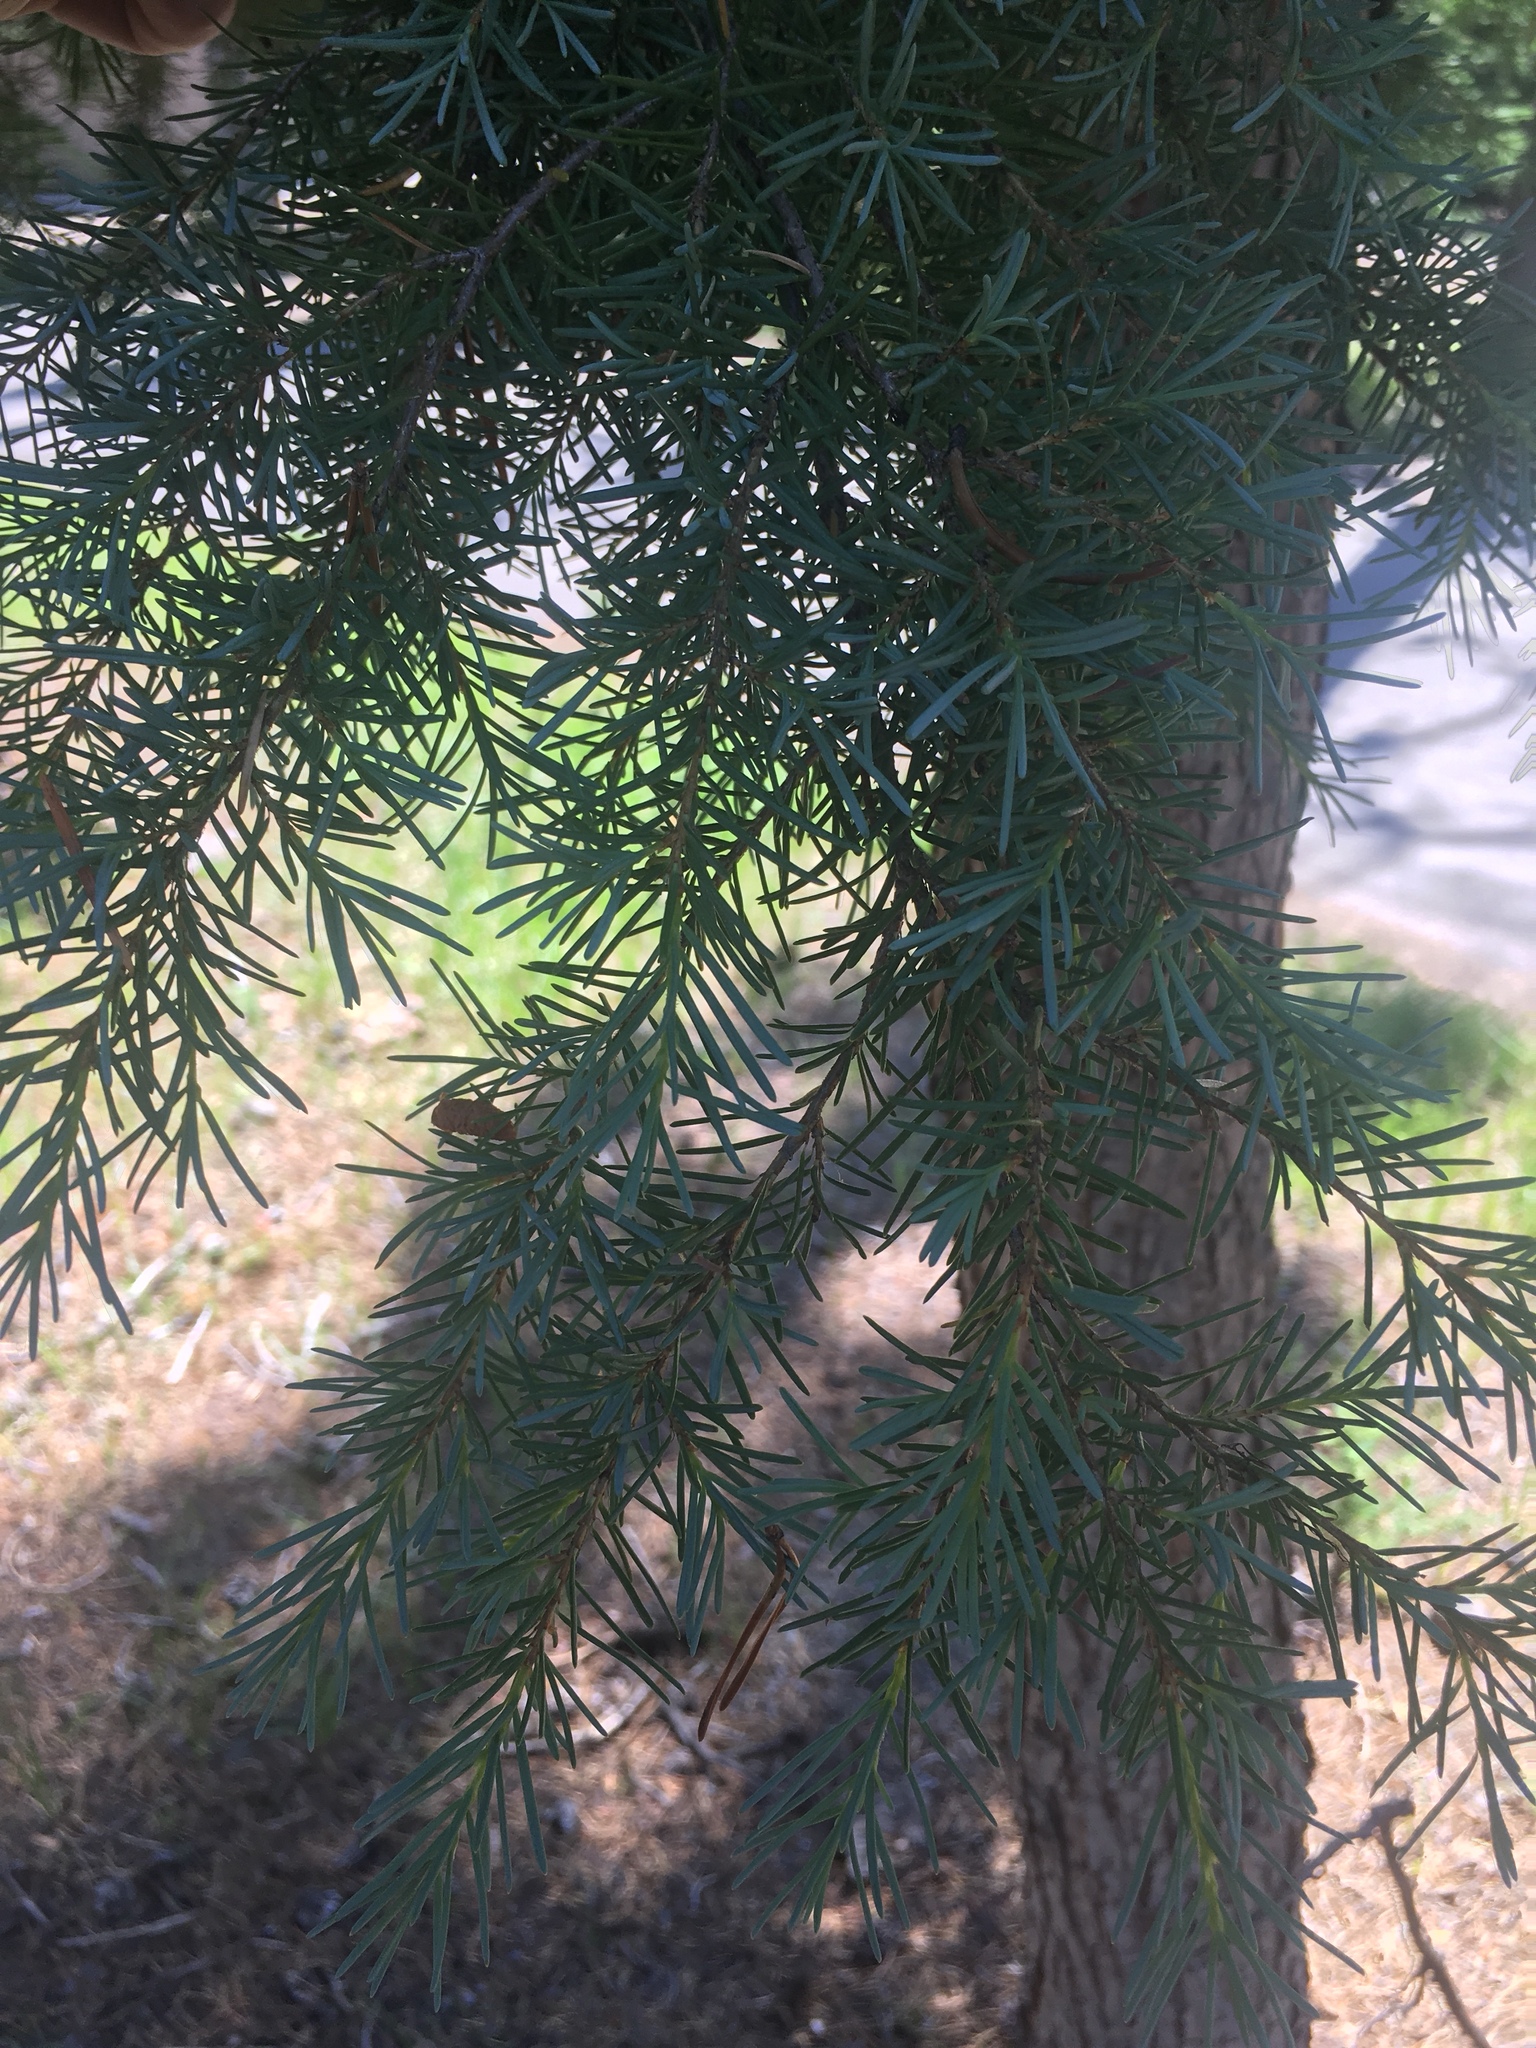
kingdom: Plantae
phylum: Tracheophyta
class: Pinopsida
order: Pinales
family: Pinaceae
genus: Tsuga
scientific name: Tsuga mertensiana
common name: Mountain hemlock
